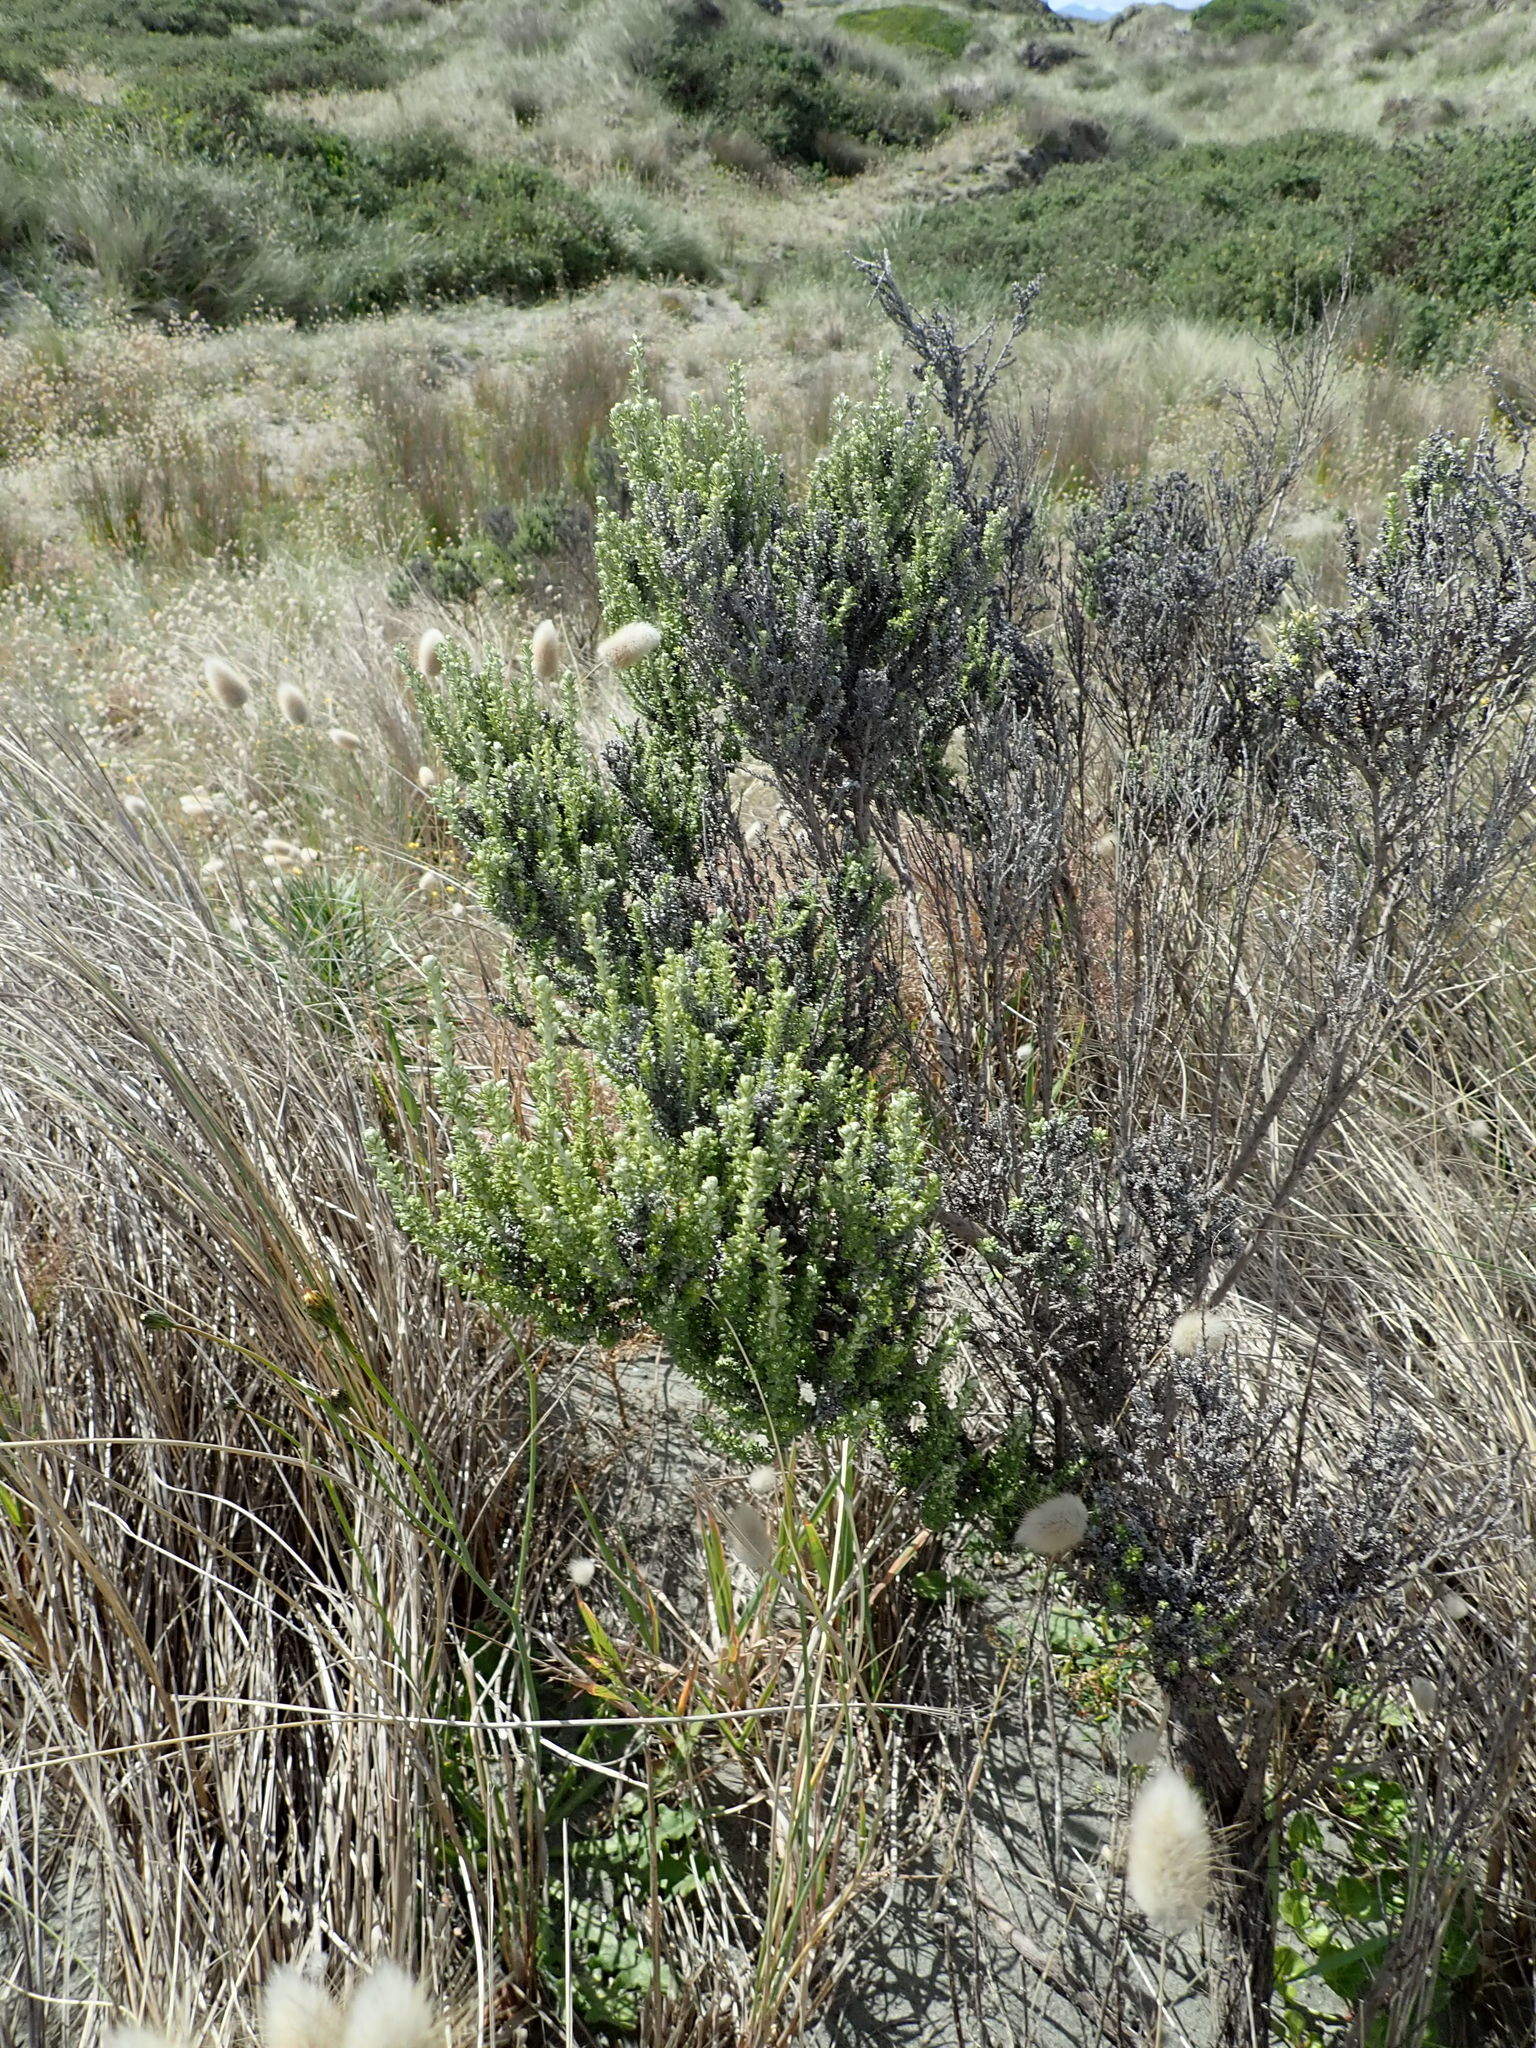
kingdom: Plantae
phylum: Tracheophyta
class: Magnoliopsida
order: Asterales
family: Asteraceae
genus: Ozothamnus
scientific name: Ozothamnus leptophyllus
